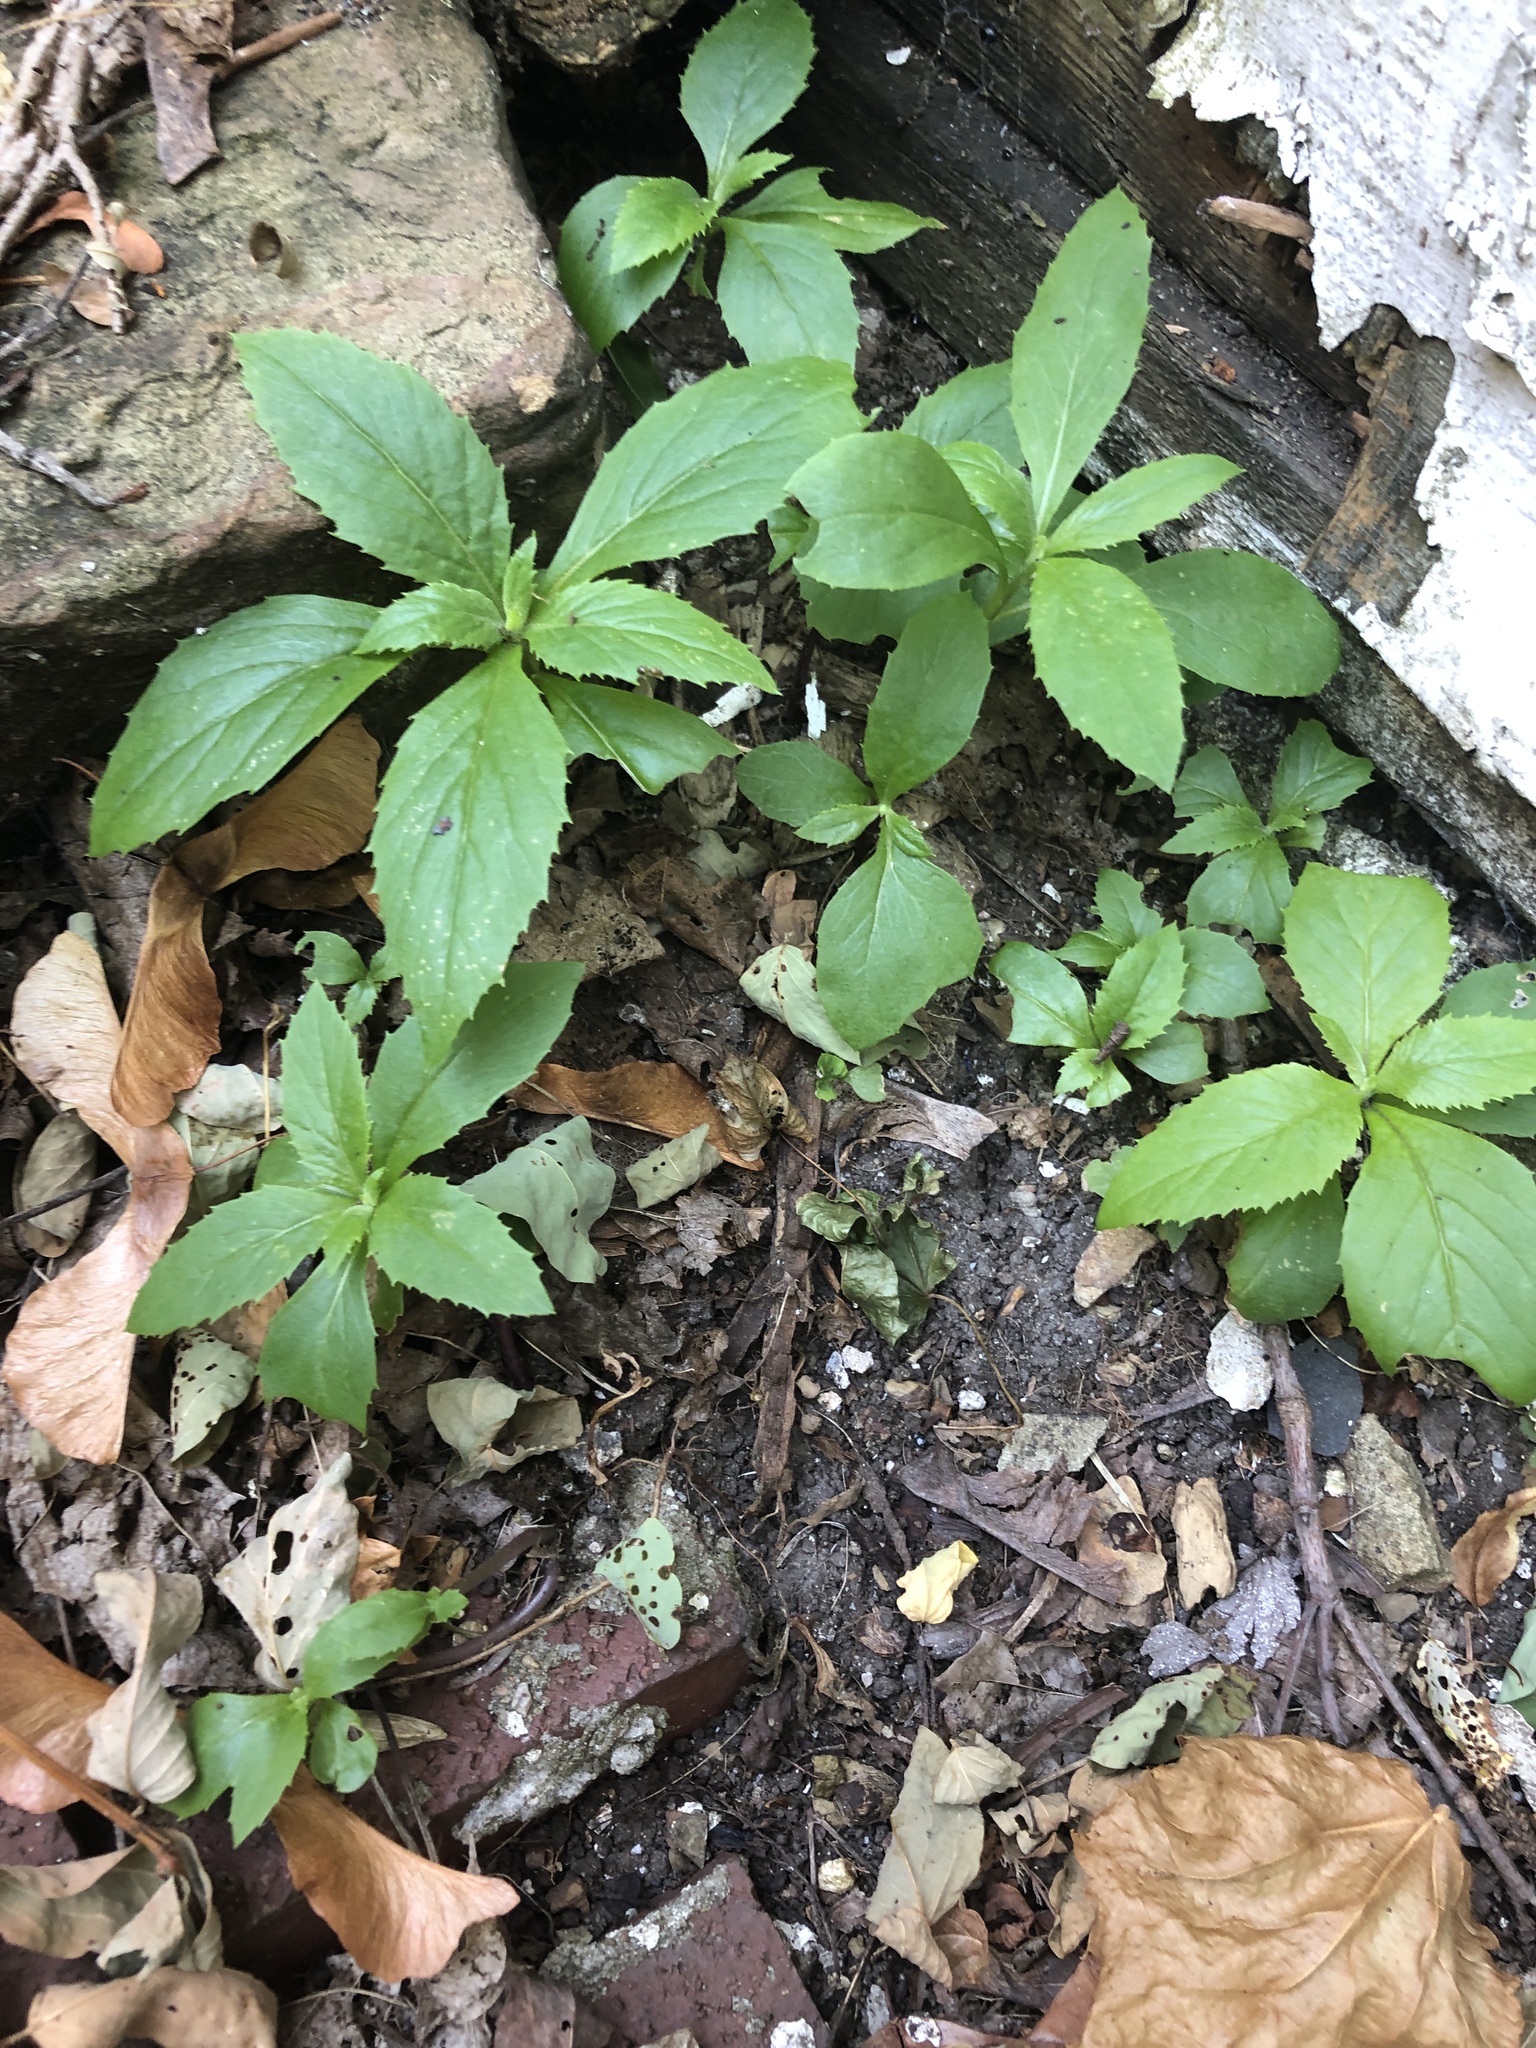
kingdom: Plantae
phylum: Tracheophyta
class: Magnoliopsida
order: Asterales
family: Asteraceae
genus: Erechtites
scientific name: Erechtites hieraciifolius
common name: American burnweed
